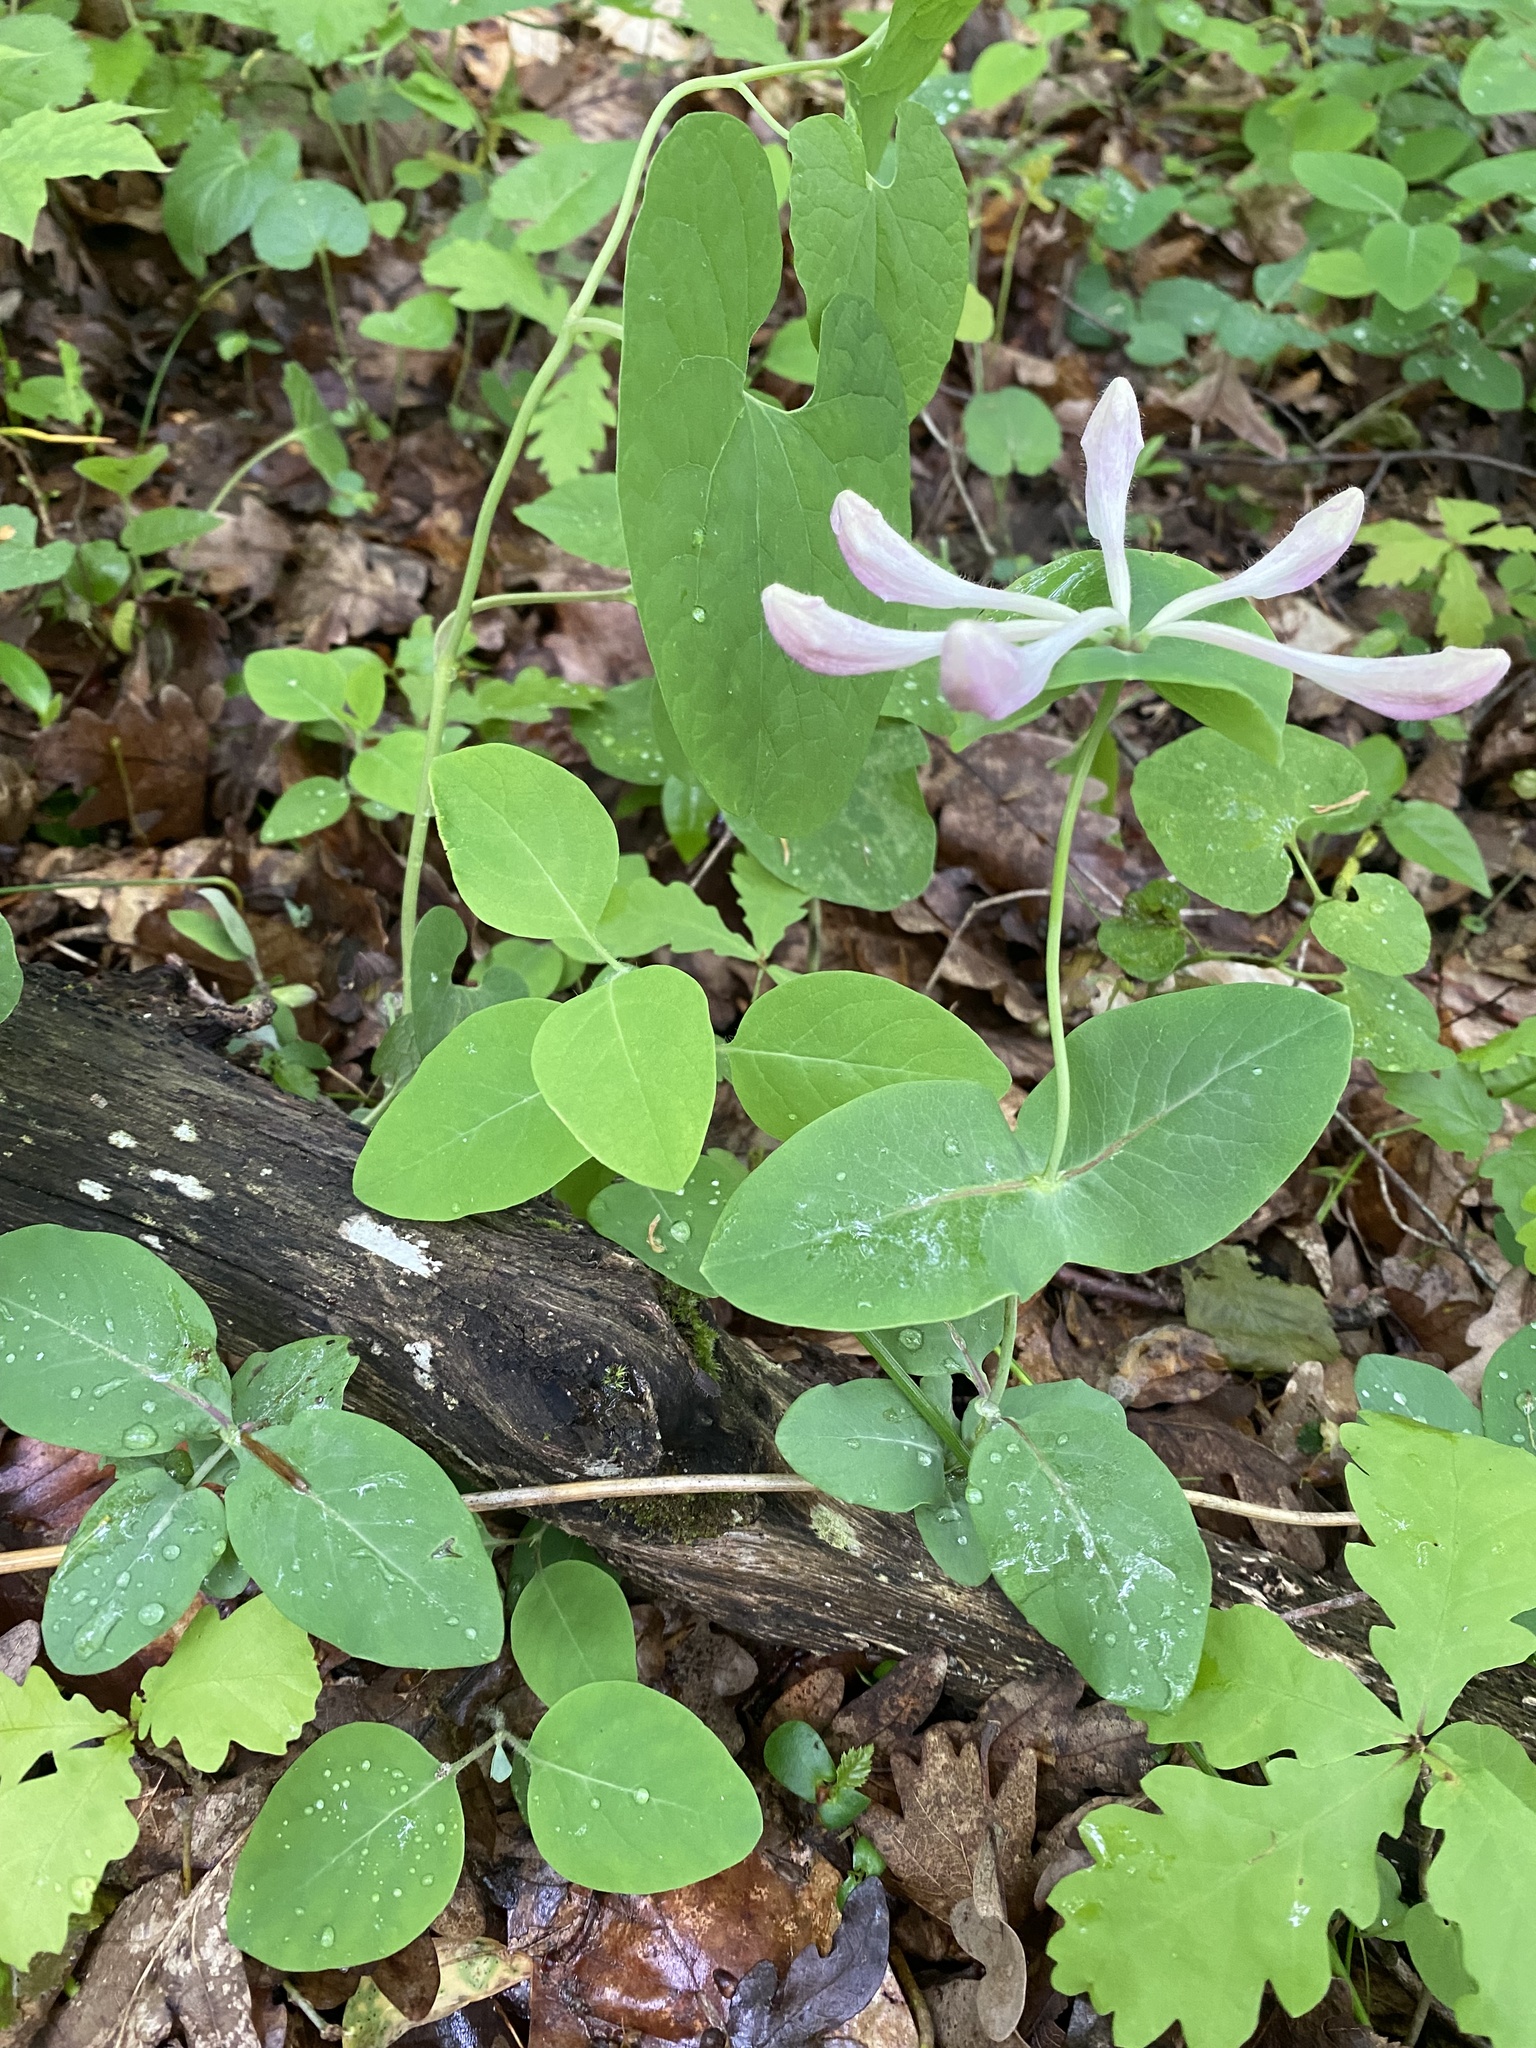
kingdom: Plantae
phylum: Tracheophyta
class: Magnoliopsida
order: Dipsacales
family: Caprifoliaceae
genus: Lonicera
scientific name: Lonicera caprifolium
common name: Perfoliate honeysuckle
